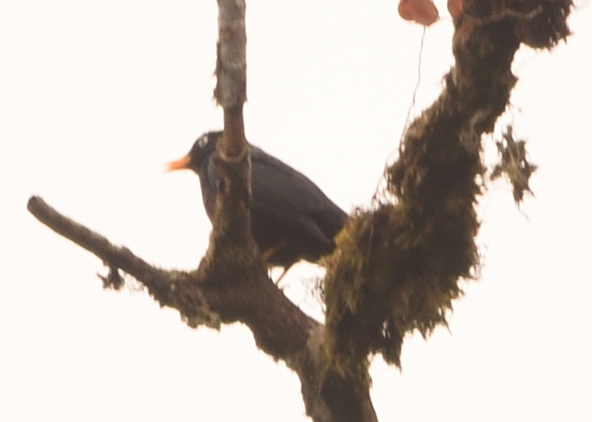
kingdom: Animalia
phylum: Chordata
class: Aves
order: Passeriformes
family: Turdidae
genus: Turdus
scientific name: Turdus leucops
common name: Pale-eyed thrush
